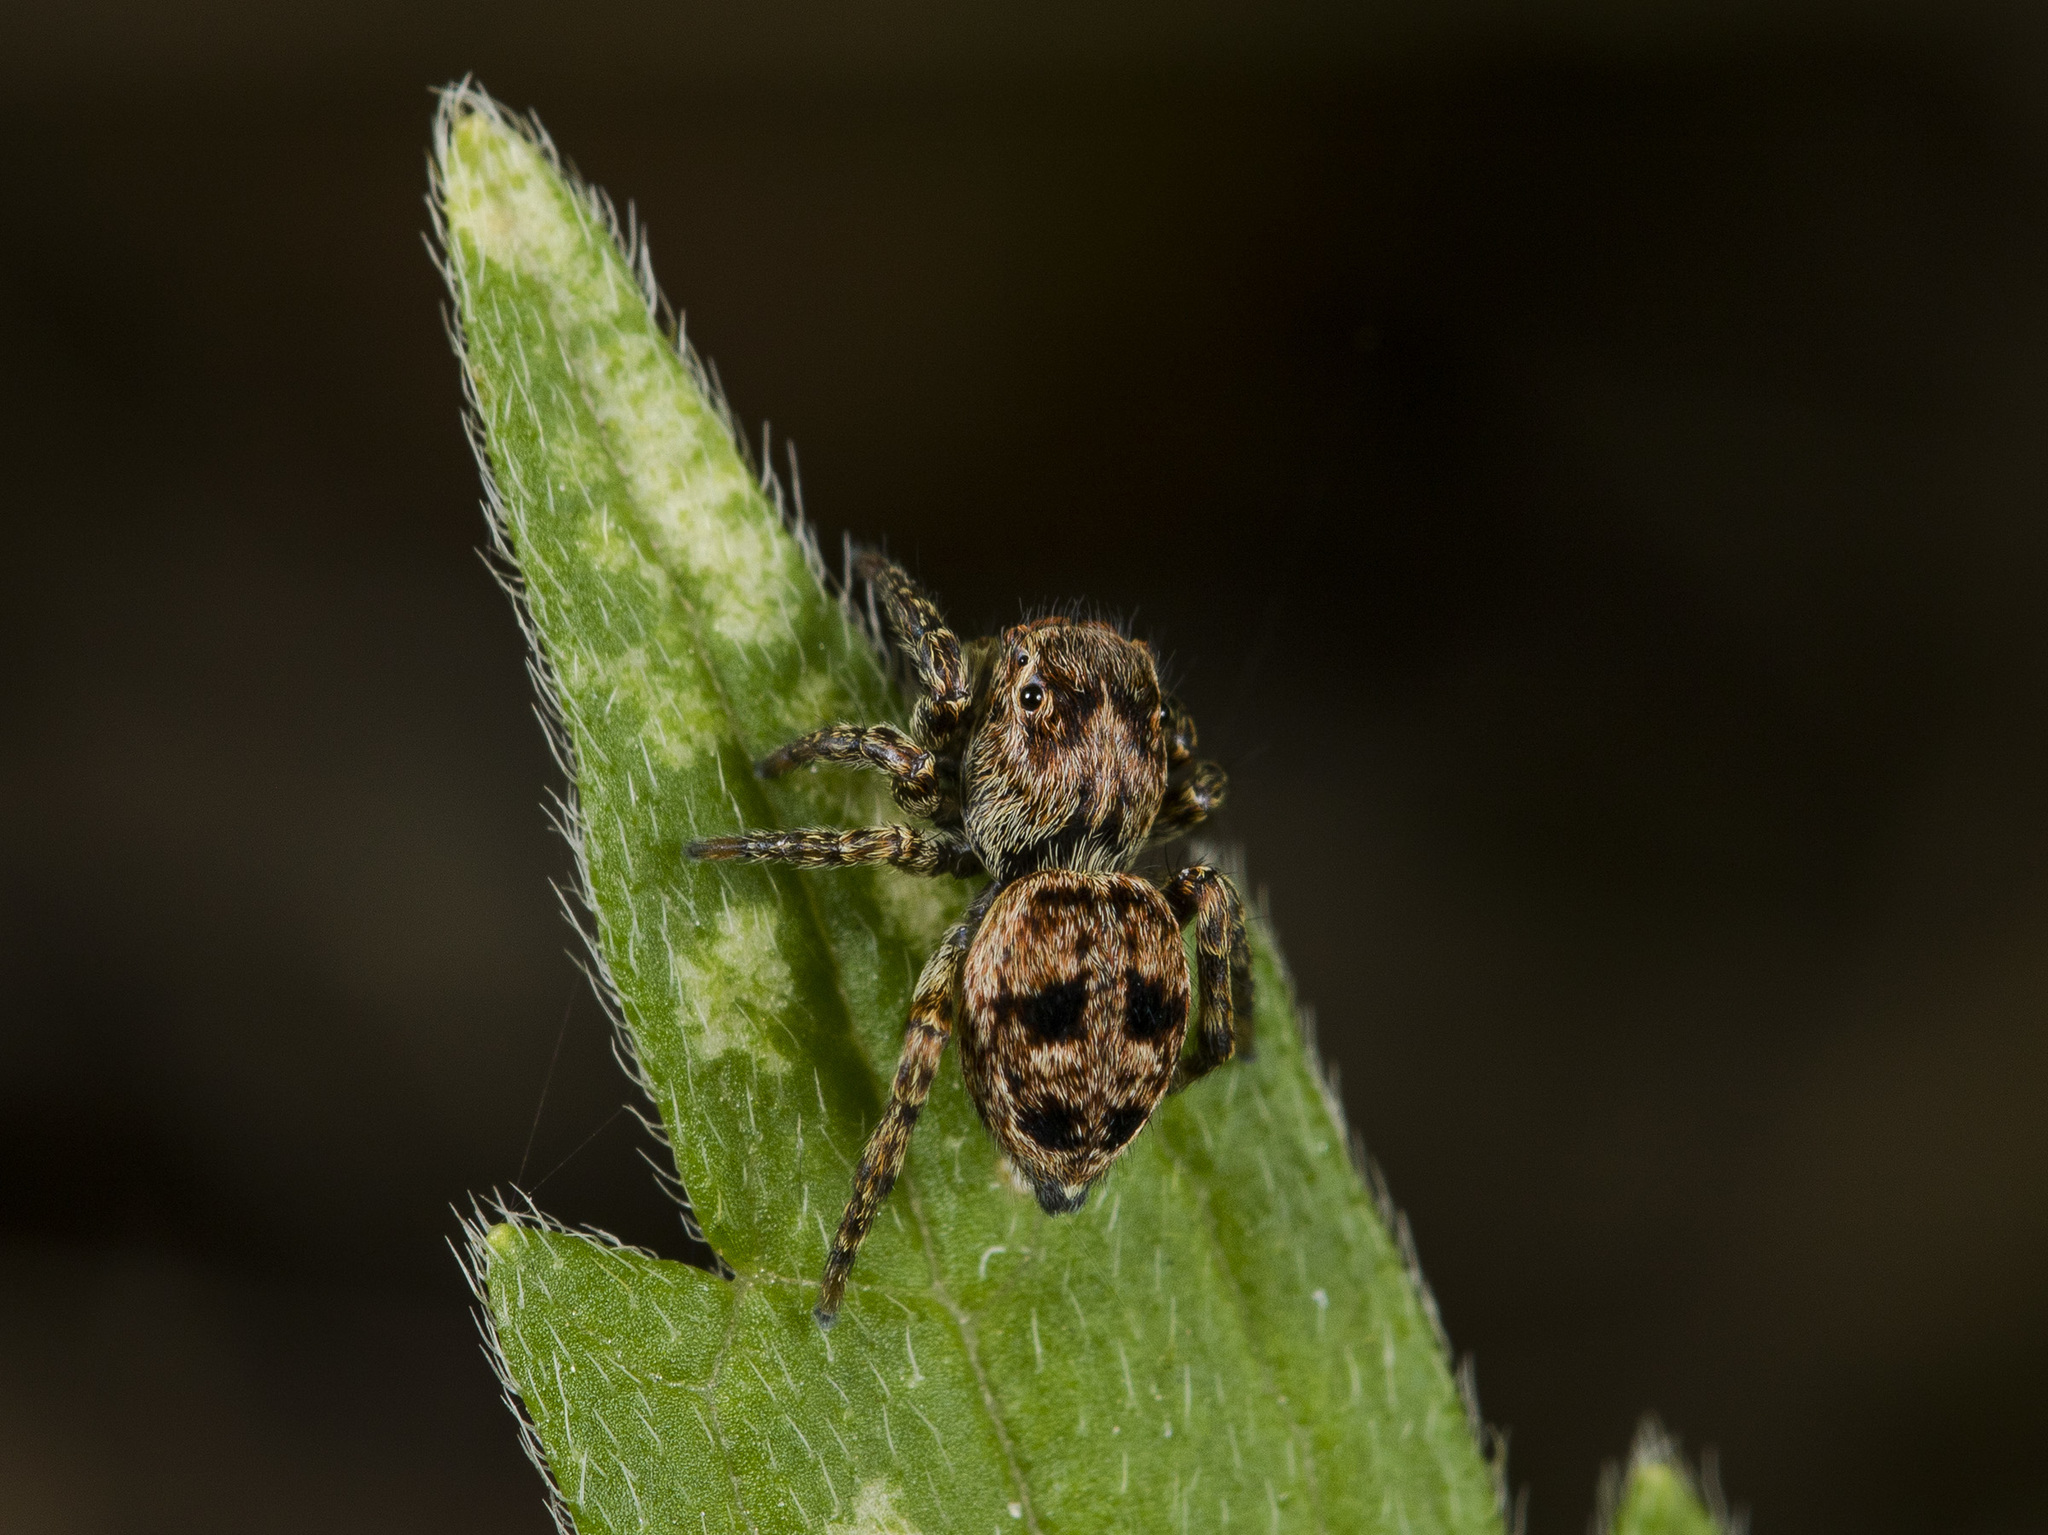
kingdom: Animalia
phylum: Arthropoda
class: Arachnida
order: Araneae
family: Salticidae
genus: Attulus
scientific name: Attulus monstrabilis
